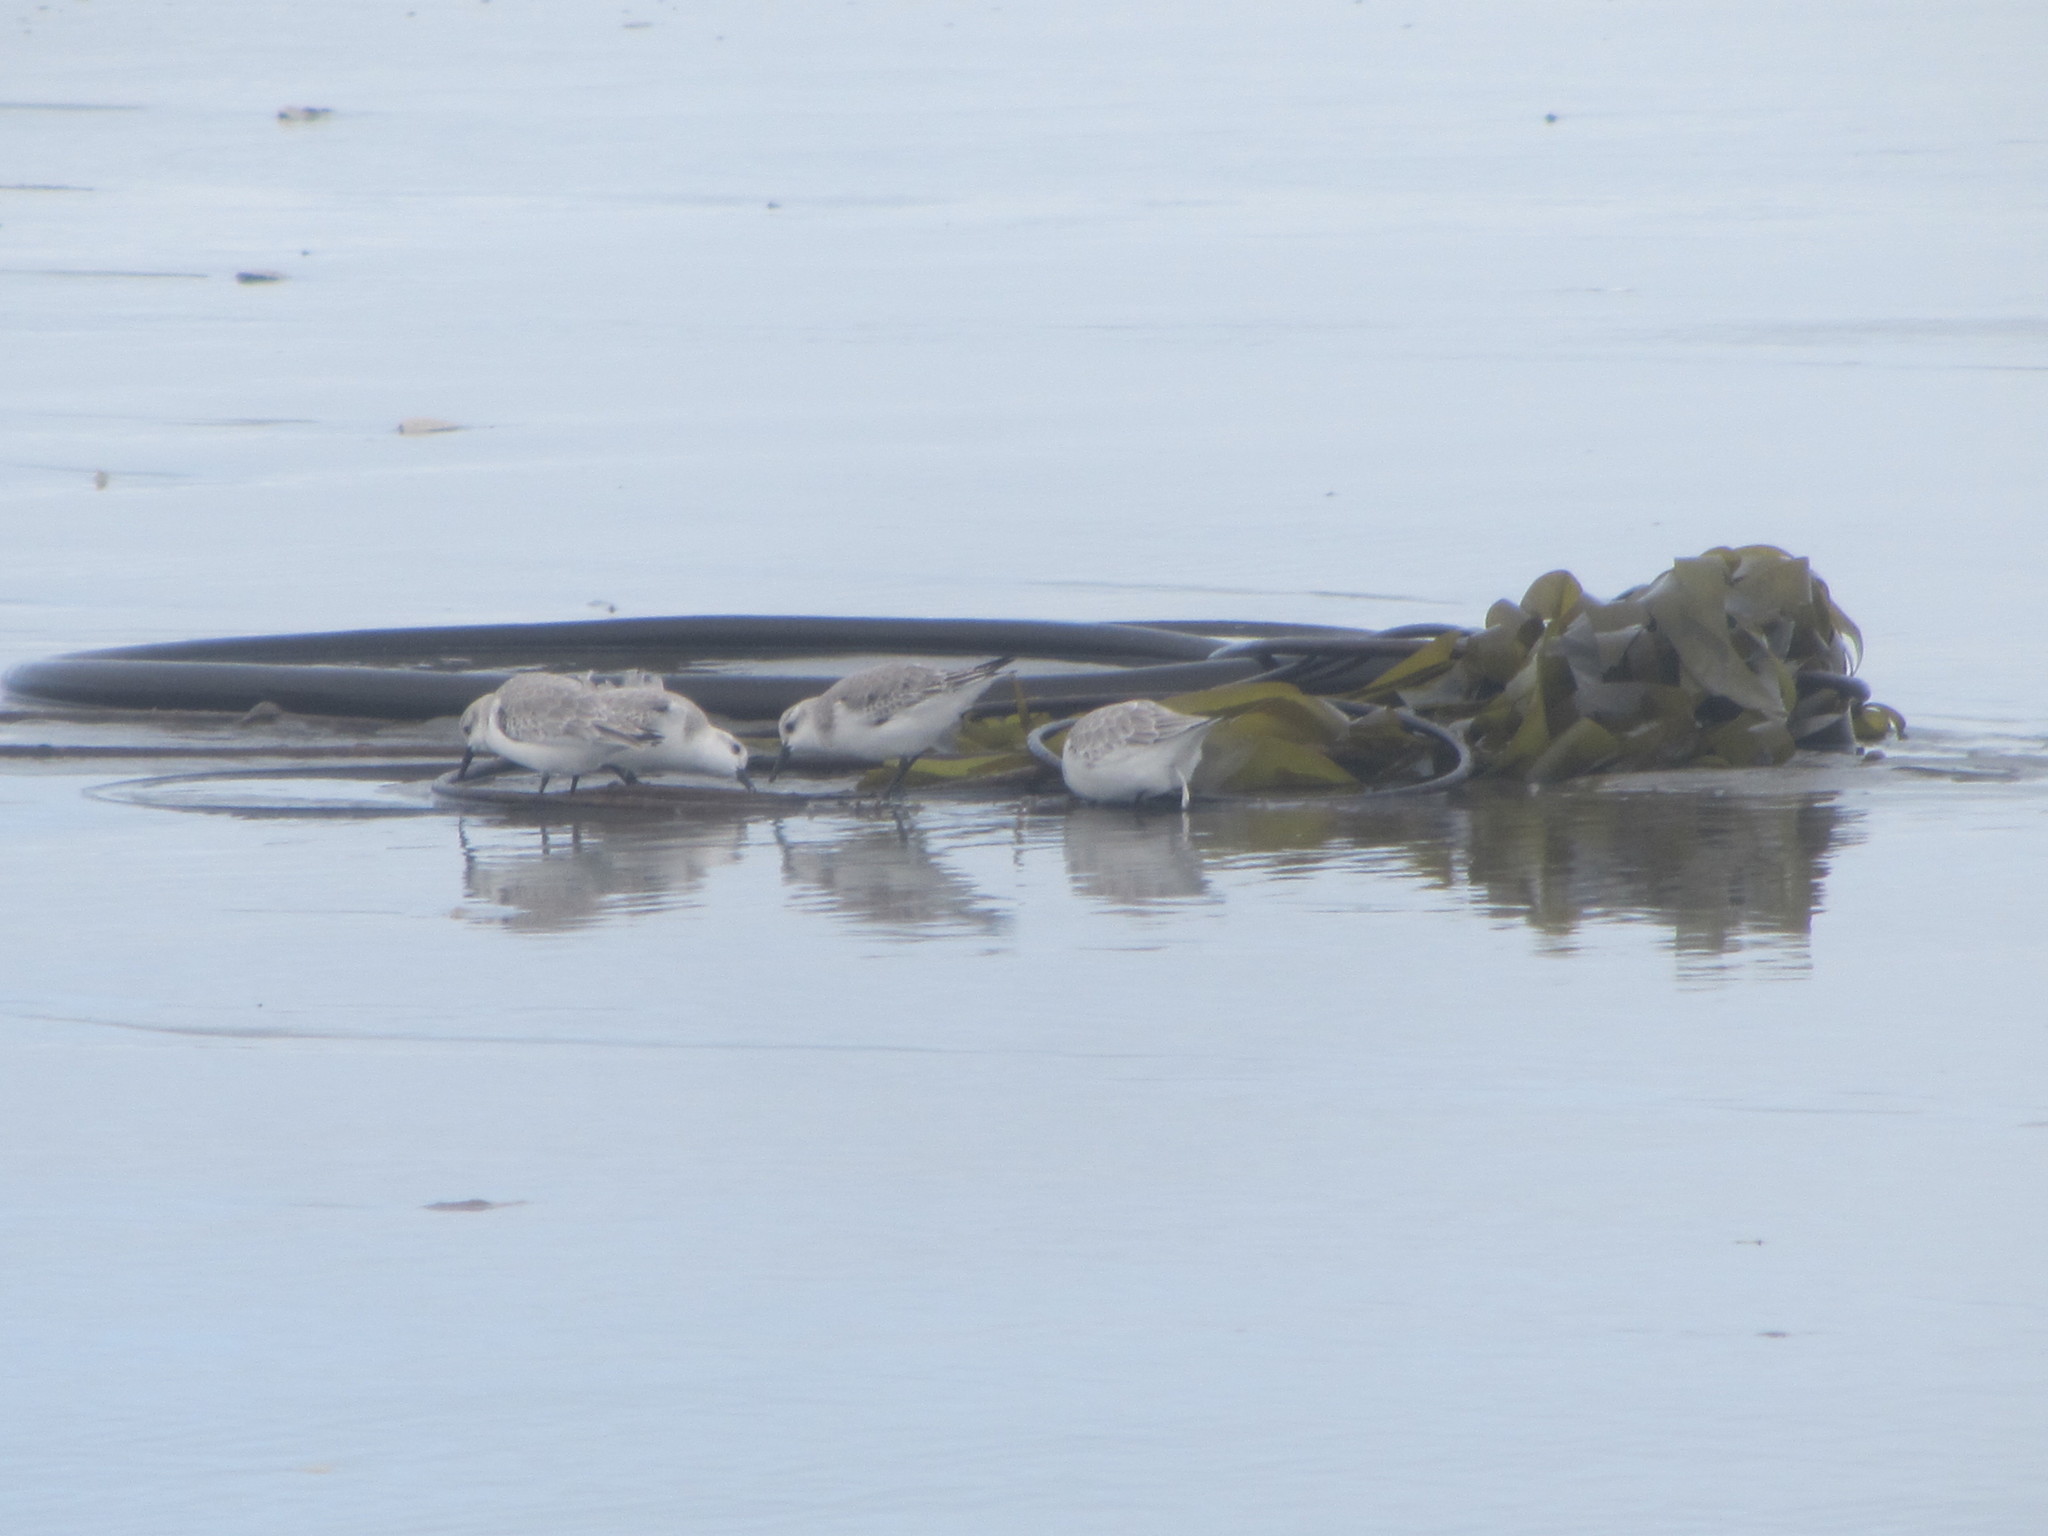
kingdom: Animalia
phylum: Chordata
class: Aves
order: Charadriiformes
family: Scolopacidae
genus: Calidris
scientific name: Calidris alba
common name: Sanderling
